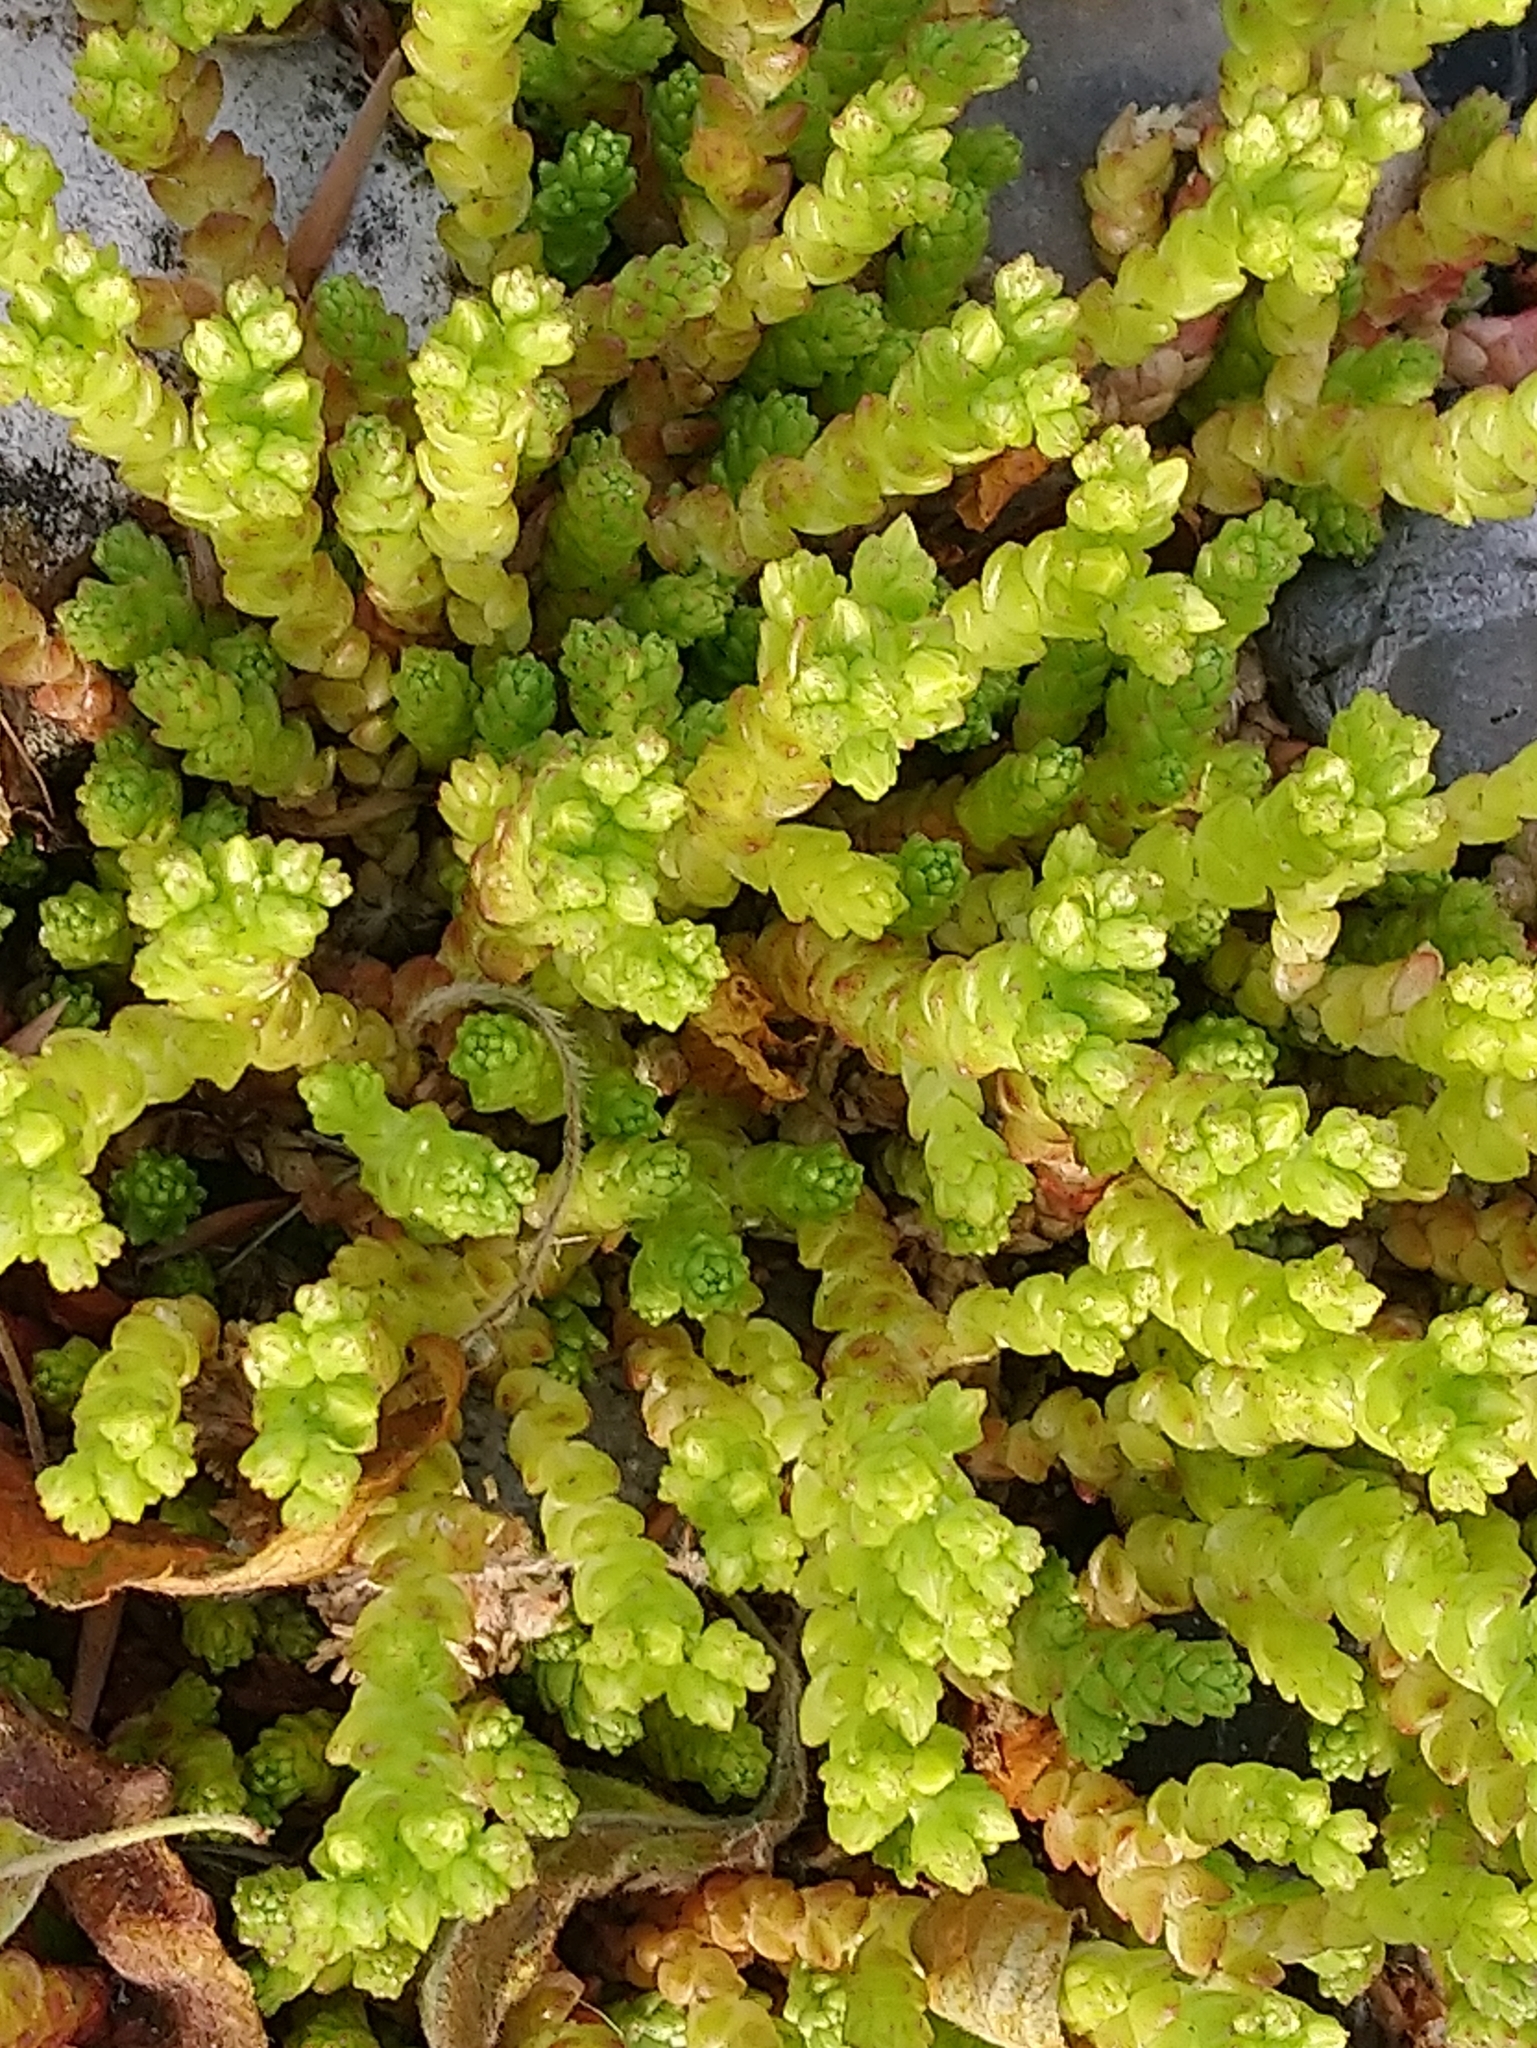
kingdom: Plantae
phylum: Tracheophyta
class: Magnoliopsida
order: Saxifragales
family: Crassulaceae
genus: Sedum
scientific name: Sedum acre
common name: Biting stonecrop
